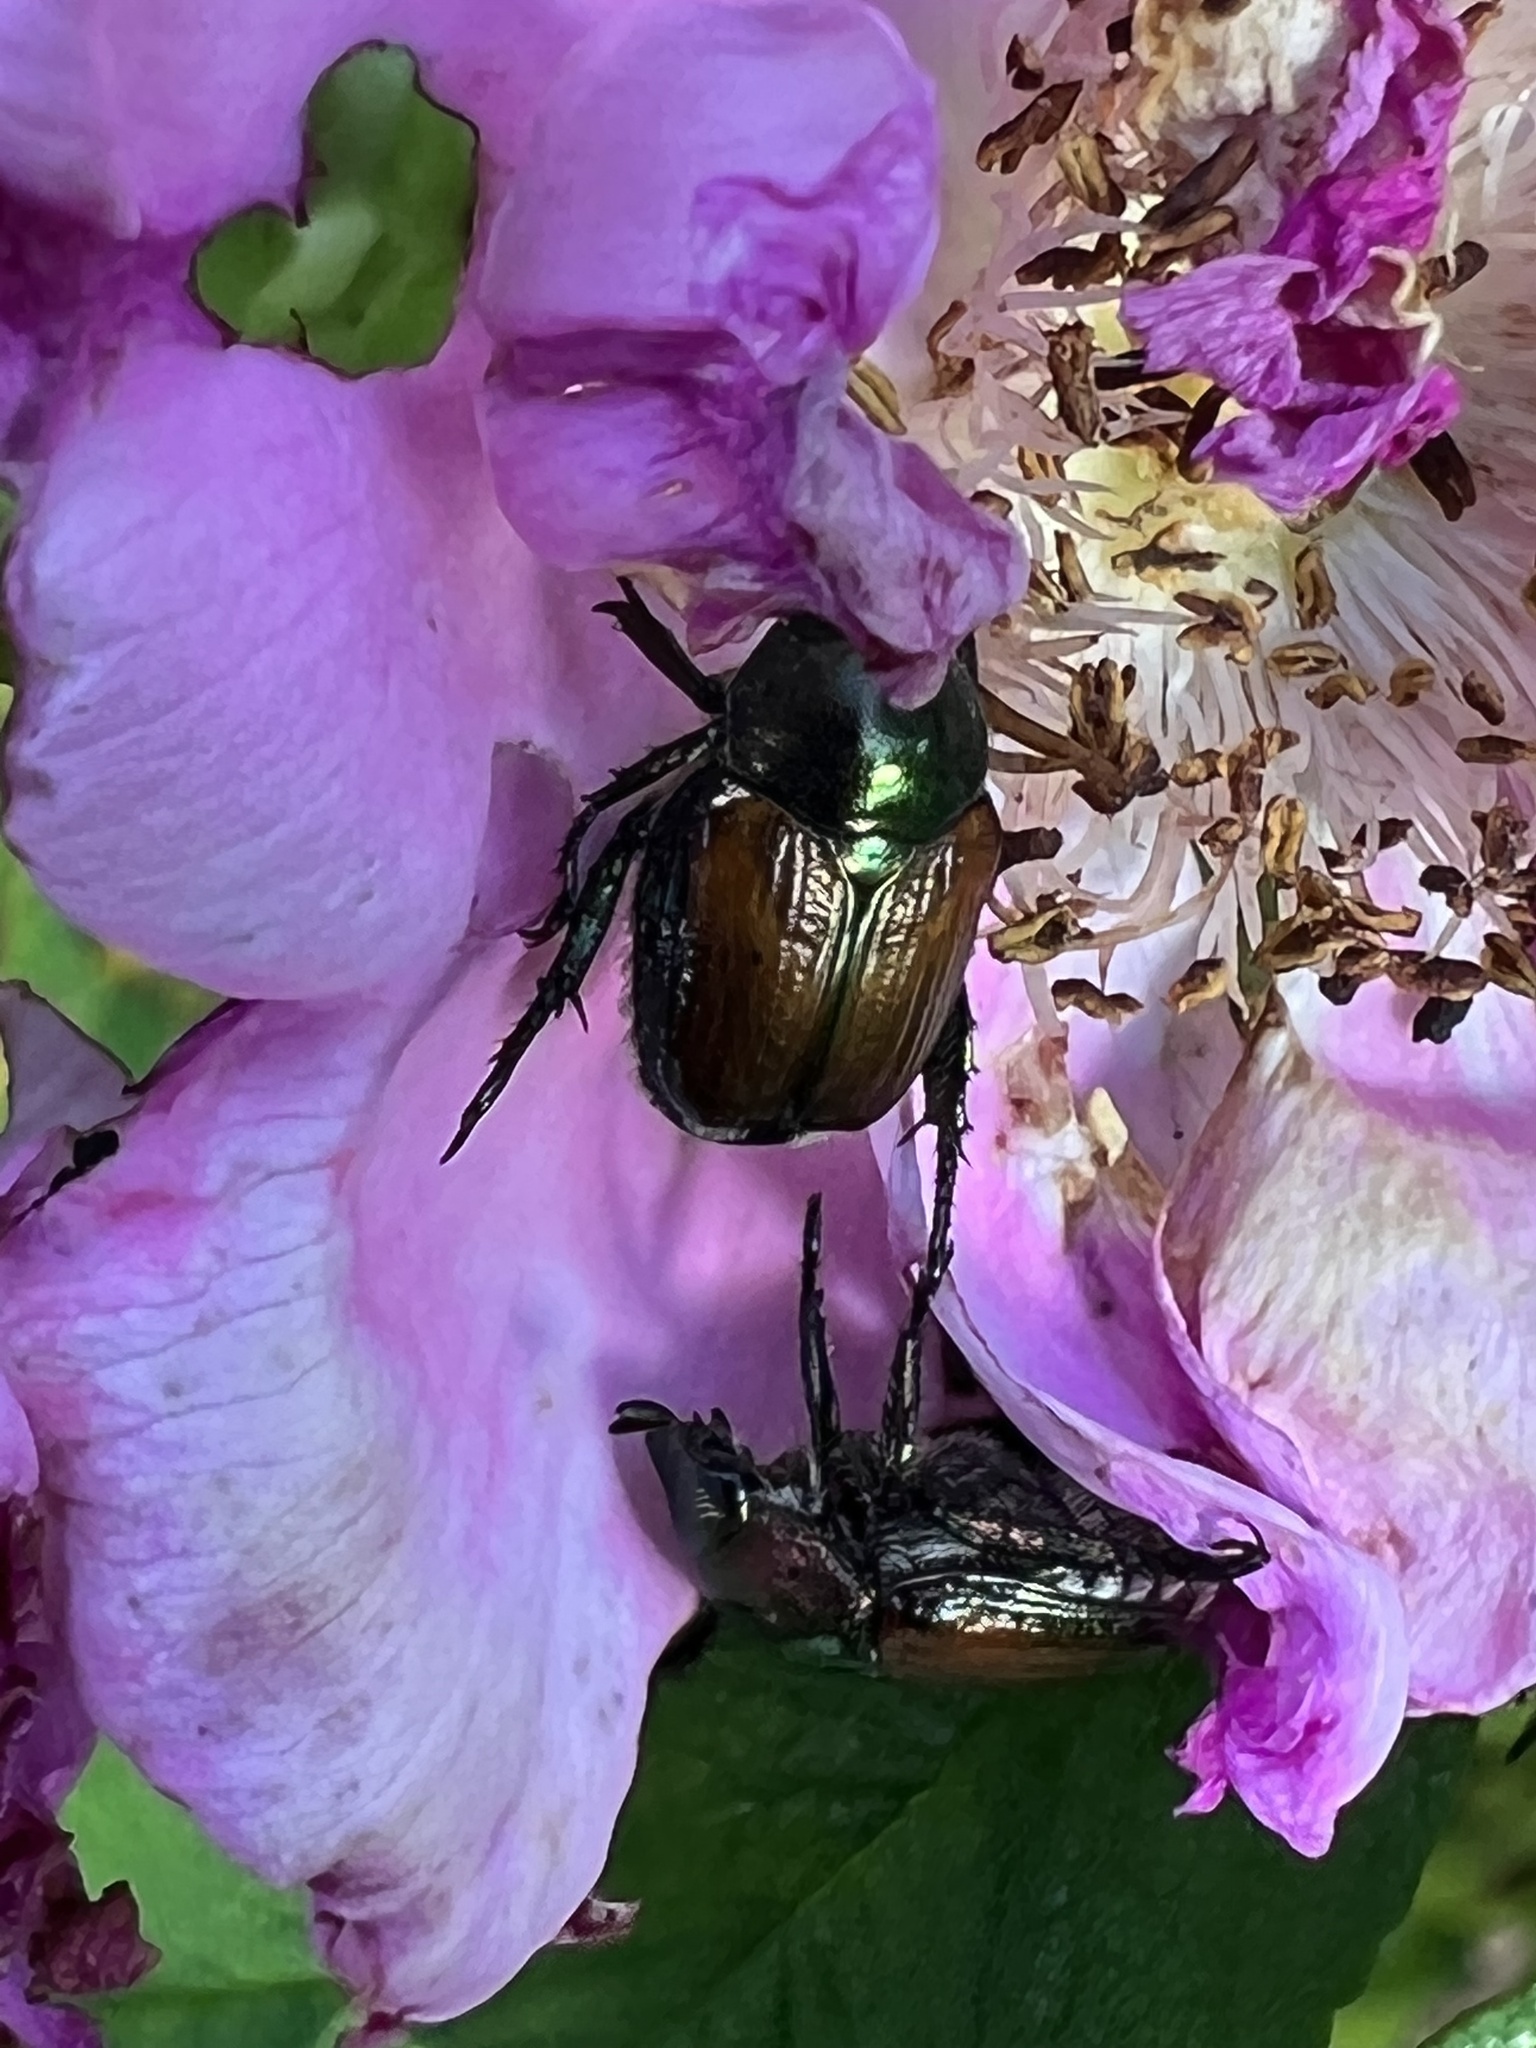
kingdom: Animalia
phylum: Arthropoda
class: Insecta
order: Coleoptera
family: Scarabaeidae
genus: Popillia
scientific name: Popillia japonica
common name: Japanese beetle
